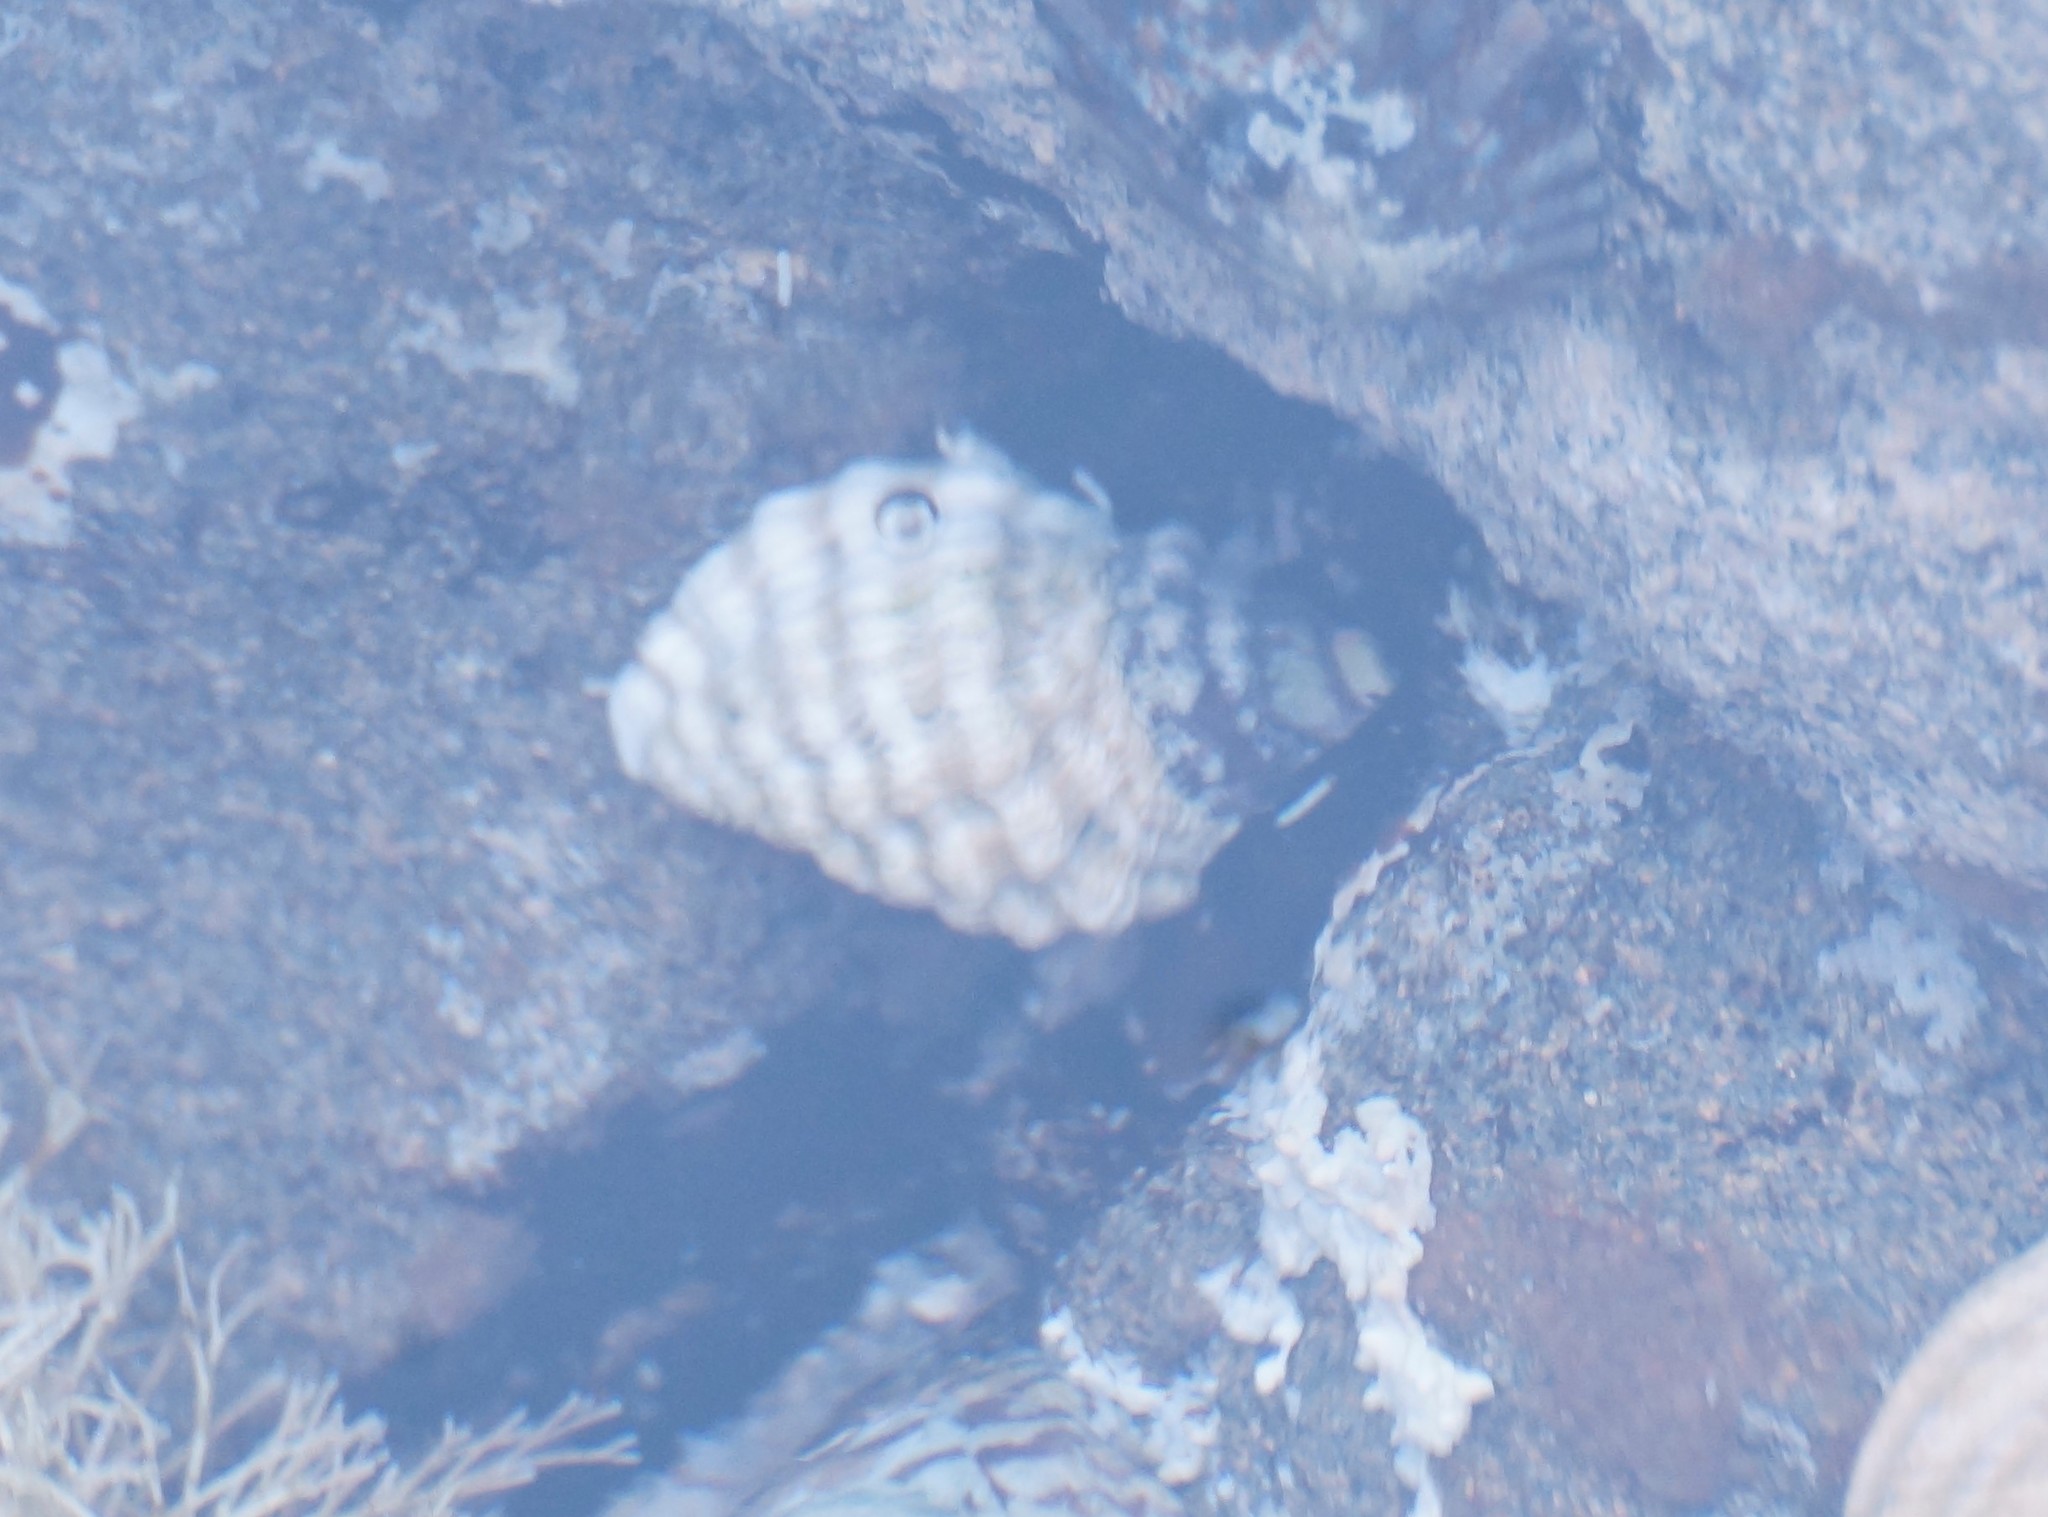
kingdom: Animalia
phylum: Mollusca
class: Gastropoda
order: Neogastropoda
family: Muricidae
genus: Bedeva
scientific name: Bedeva vinosa
